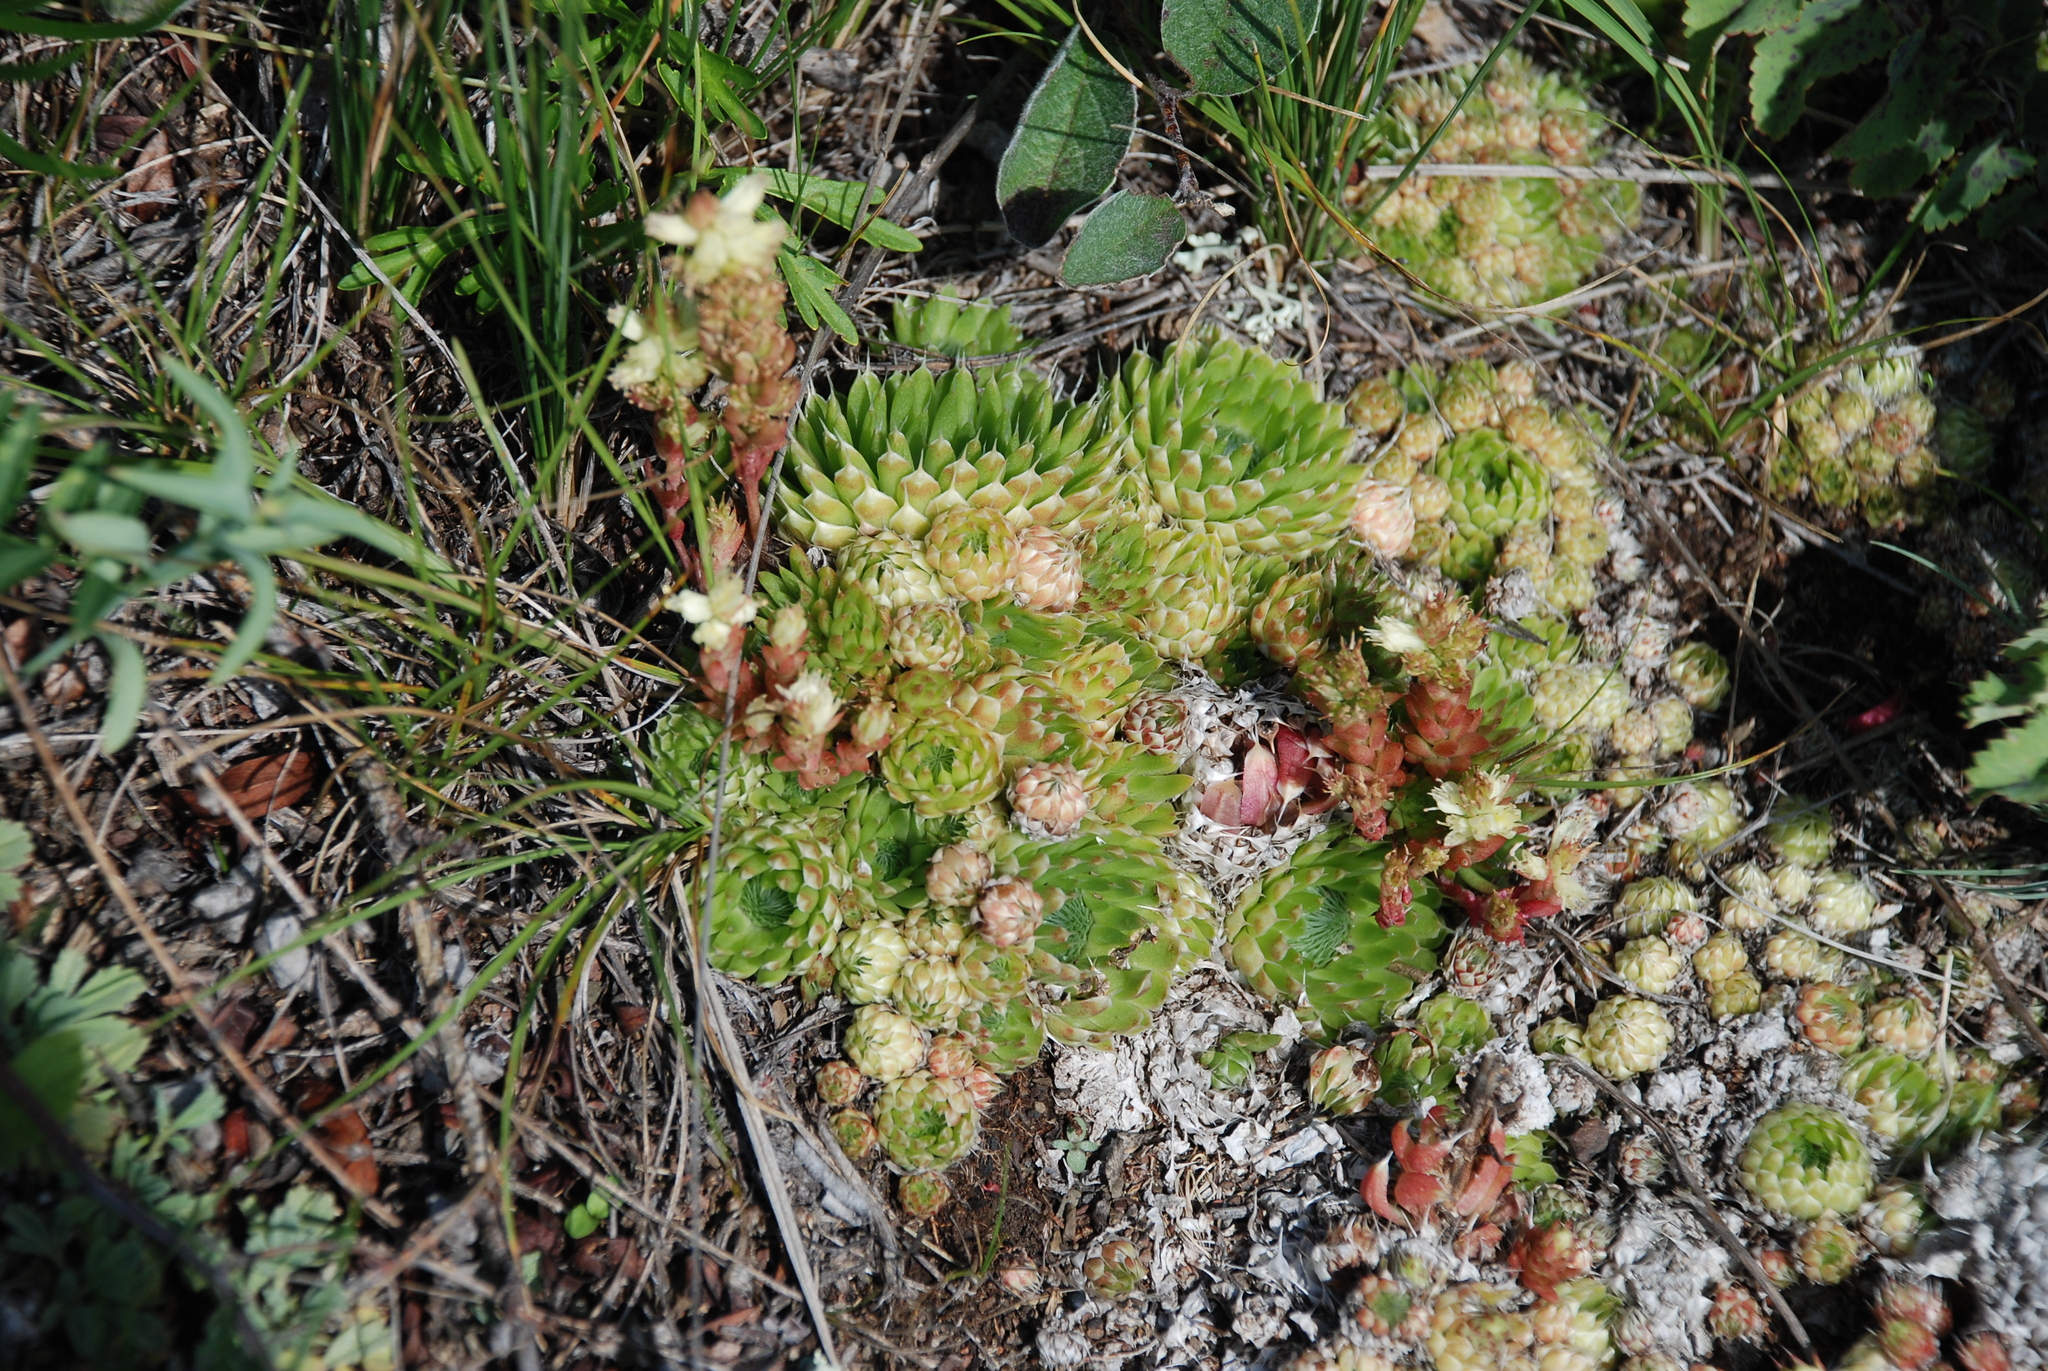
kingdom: Plantae
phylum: Tracheophyta
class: Magnoliopsida
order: Saxifragales
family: Crassulaceae
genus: Orostachys
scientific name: Orostachys spinosa
